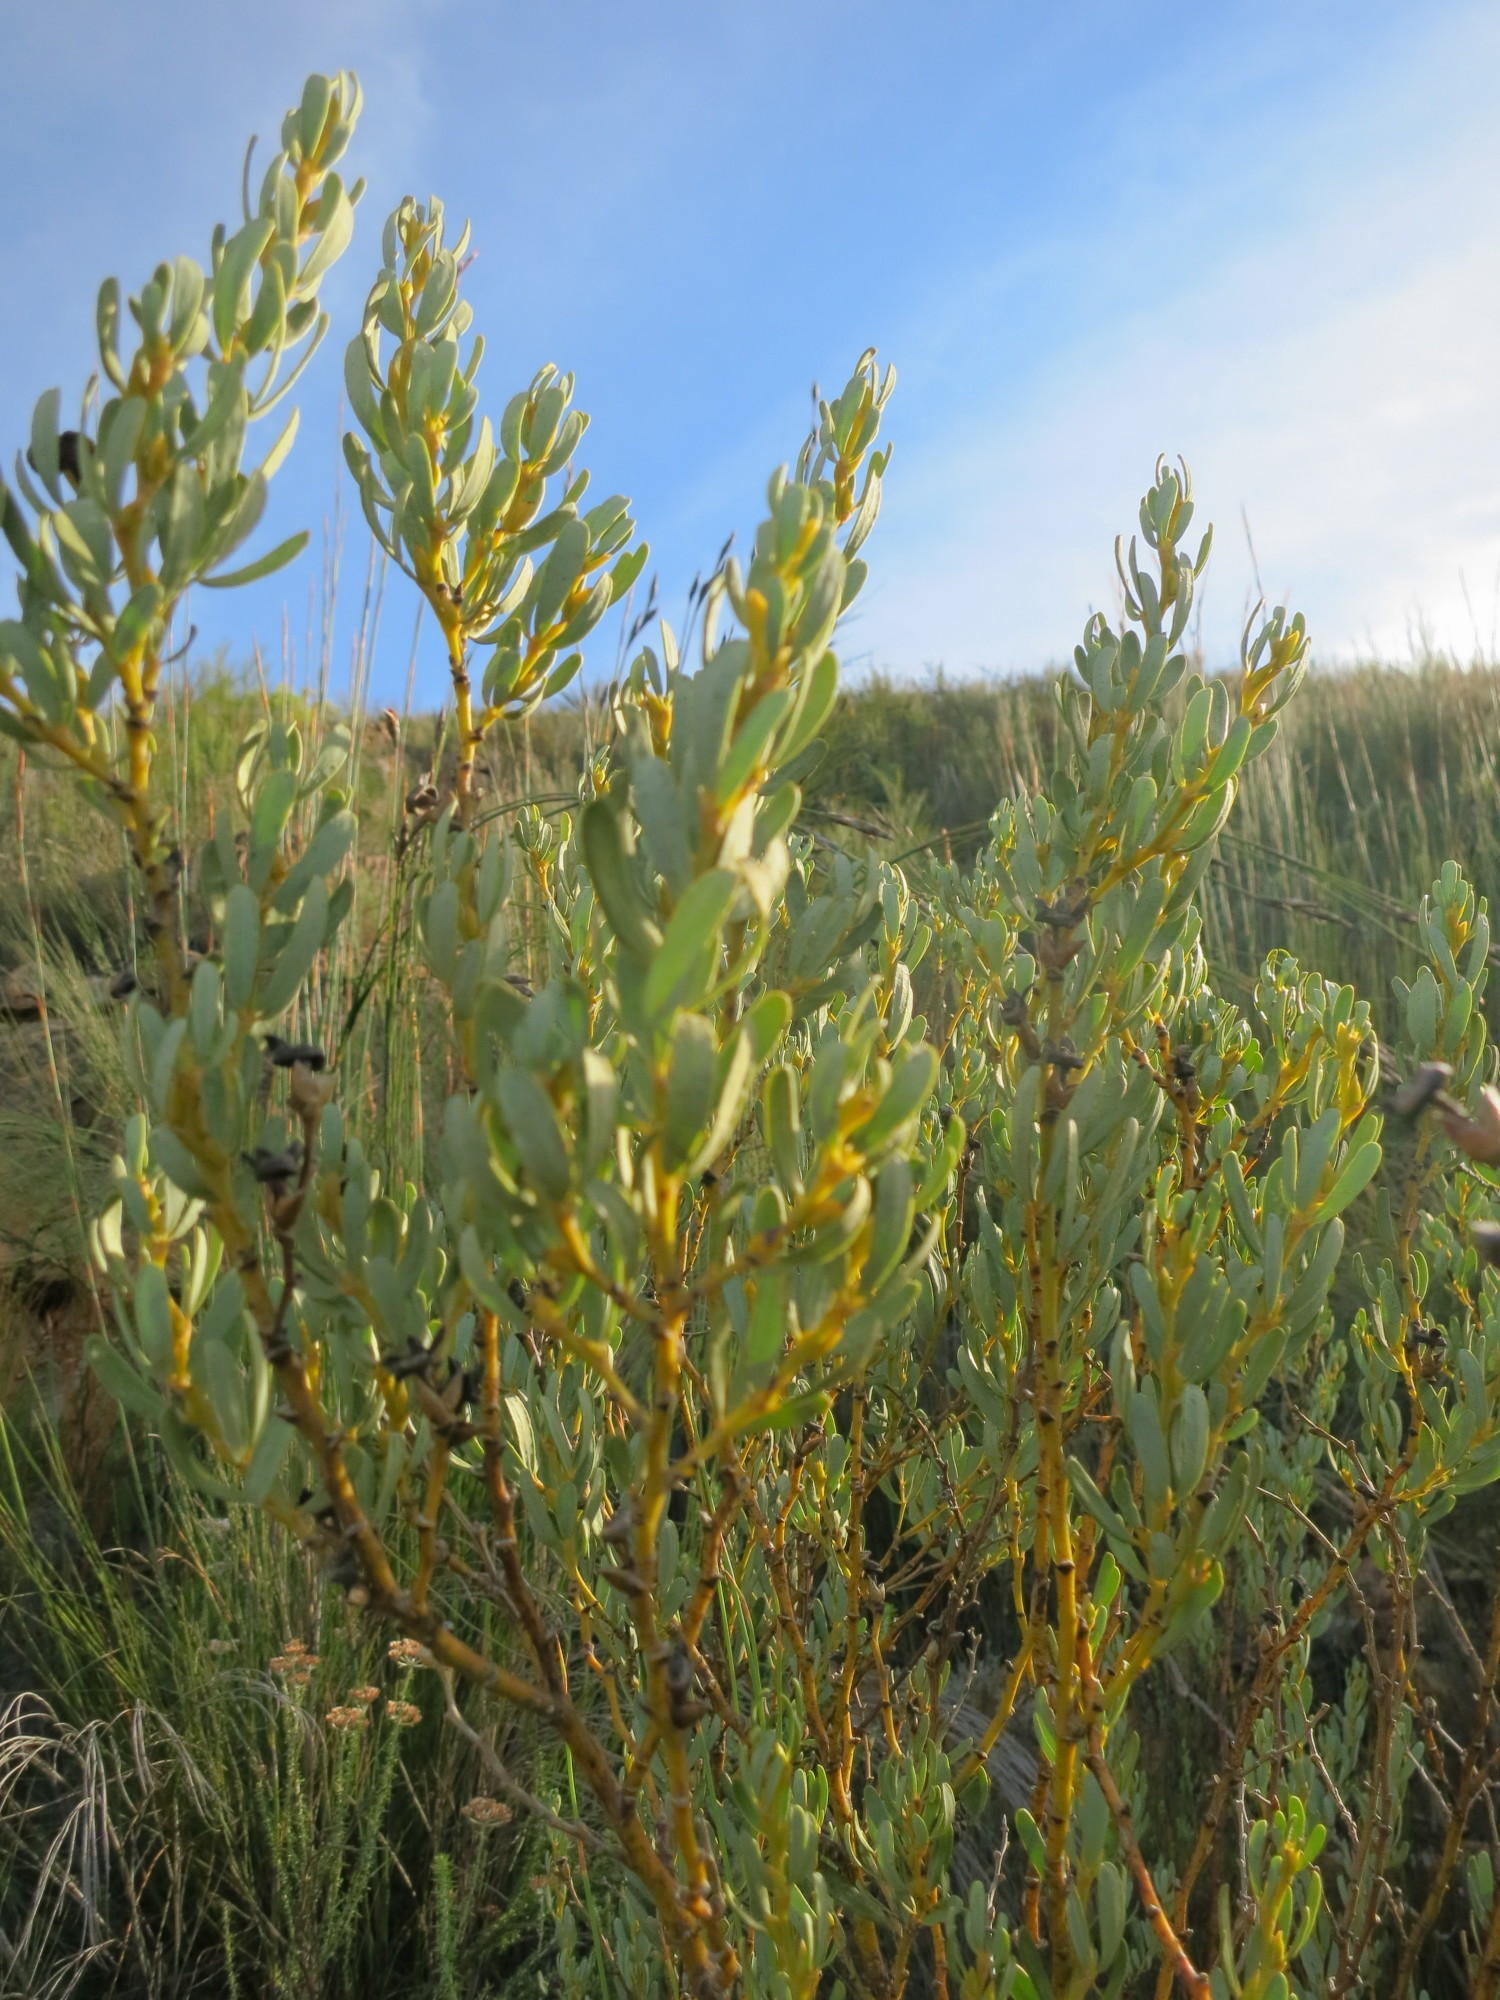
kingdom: Plantae
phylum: Tracheophyta
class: Magnoliopsida
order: Fabales
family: Fabaceae
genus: Cyclopia
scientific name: Cyclopia intermedia
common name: Mountain tea
